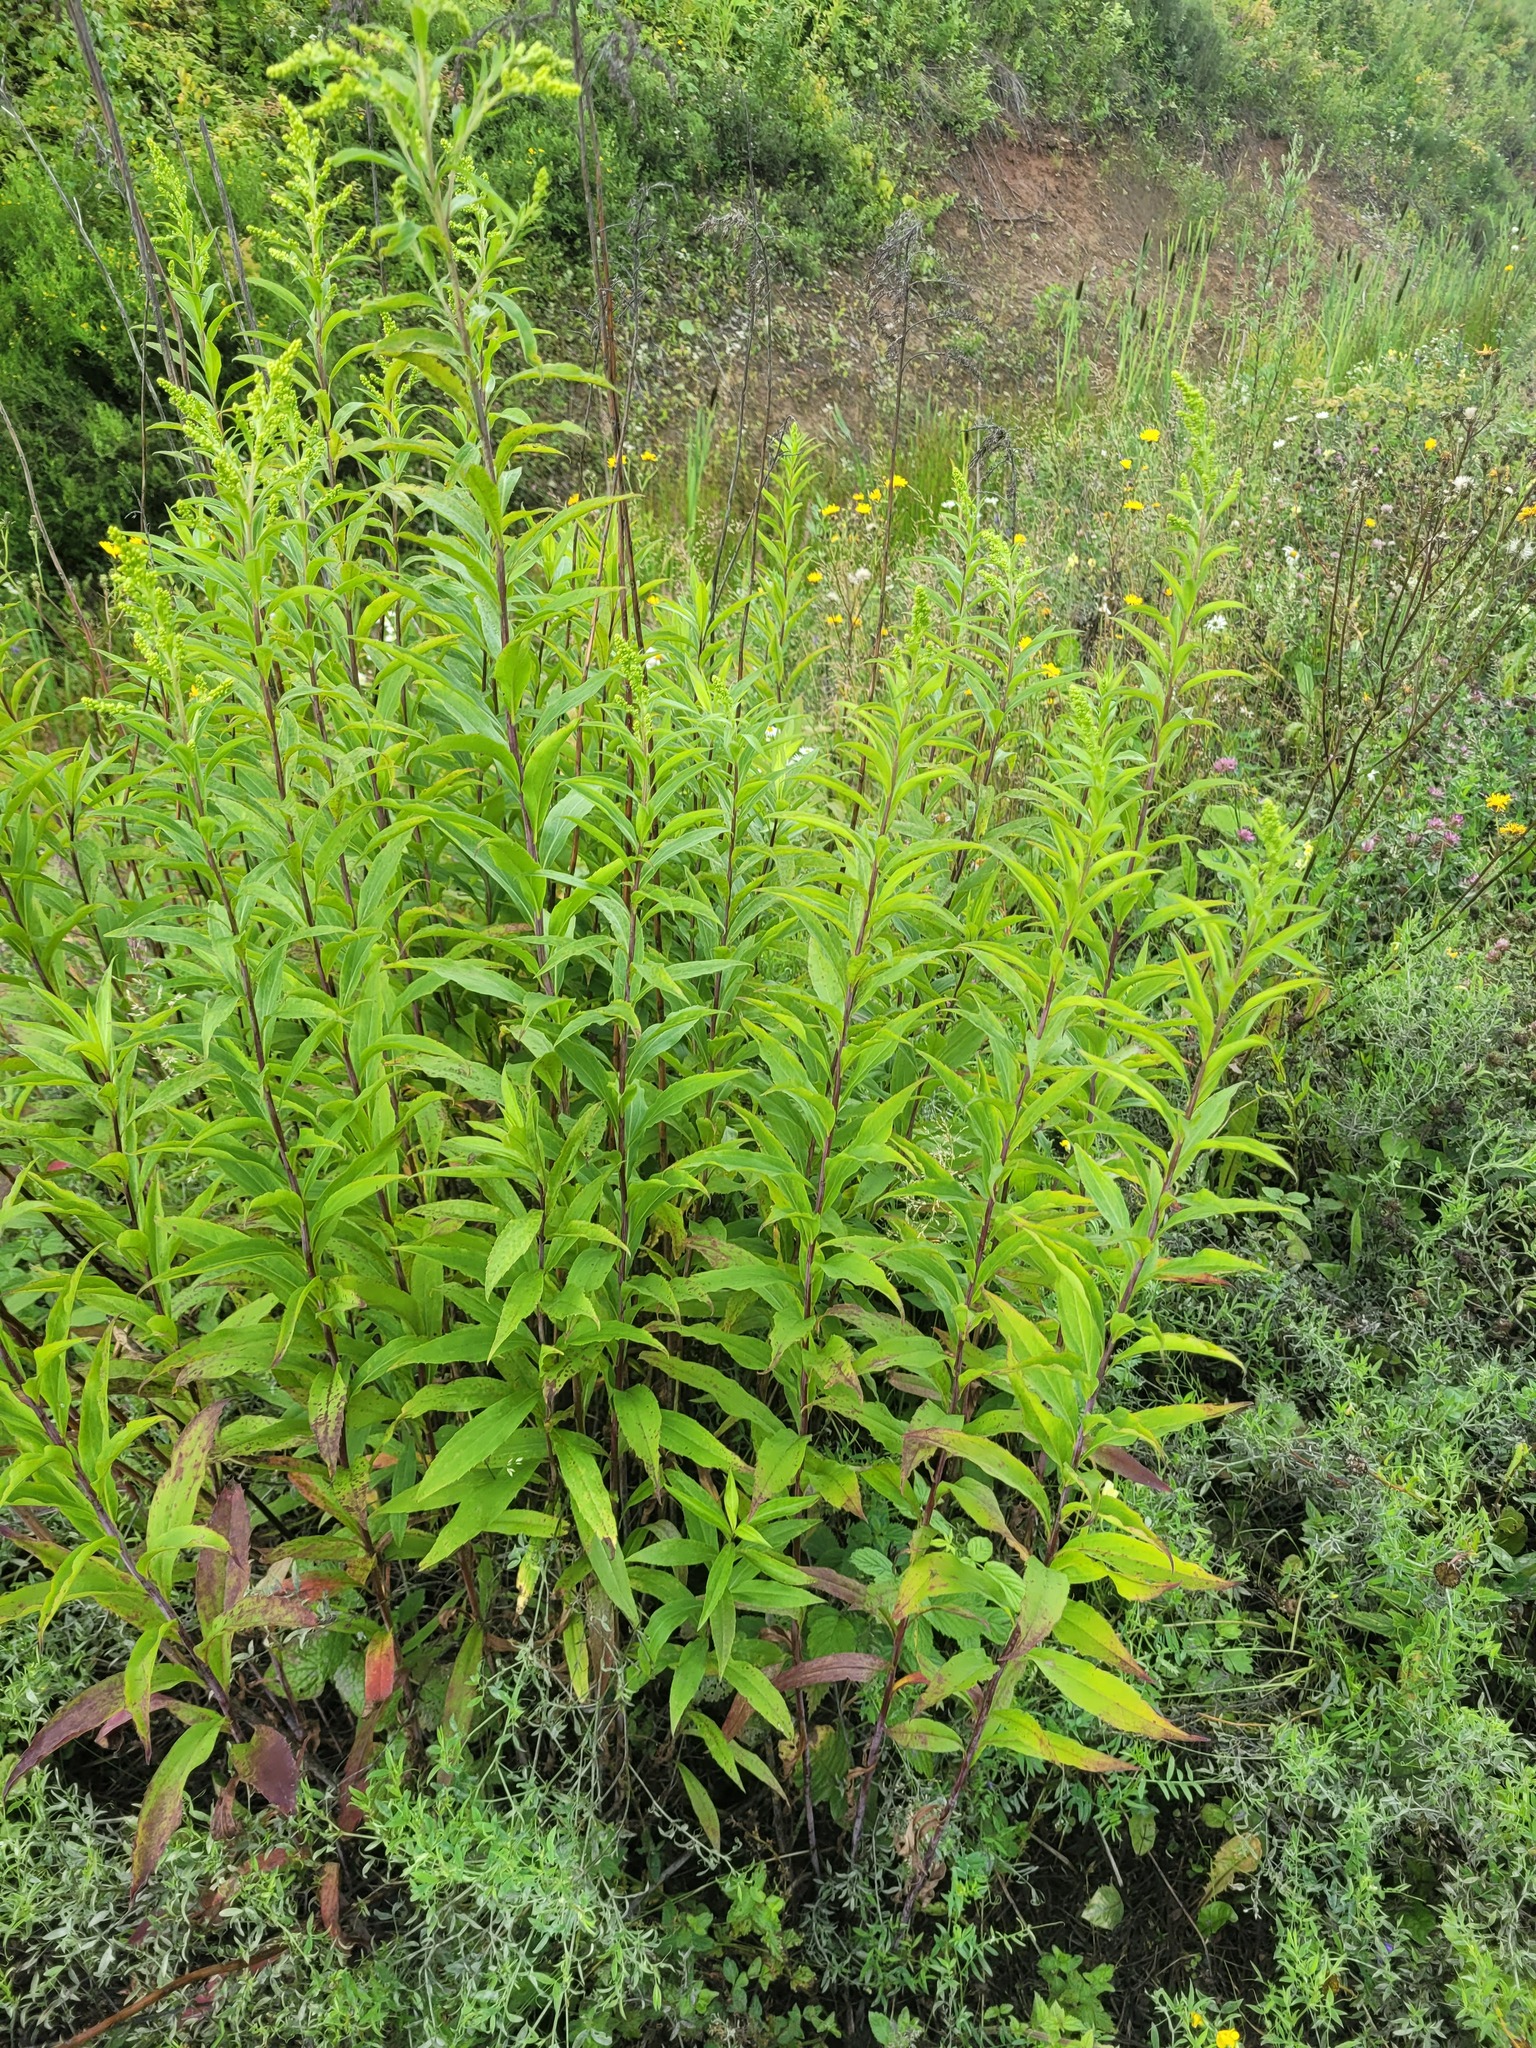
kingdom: Plantae
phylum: Tracheophyta
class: Magnoliopsida
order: Asterales
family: Asteraceae
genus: Solidago
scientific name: Solidago gigantea
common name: Giant goldenrod
